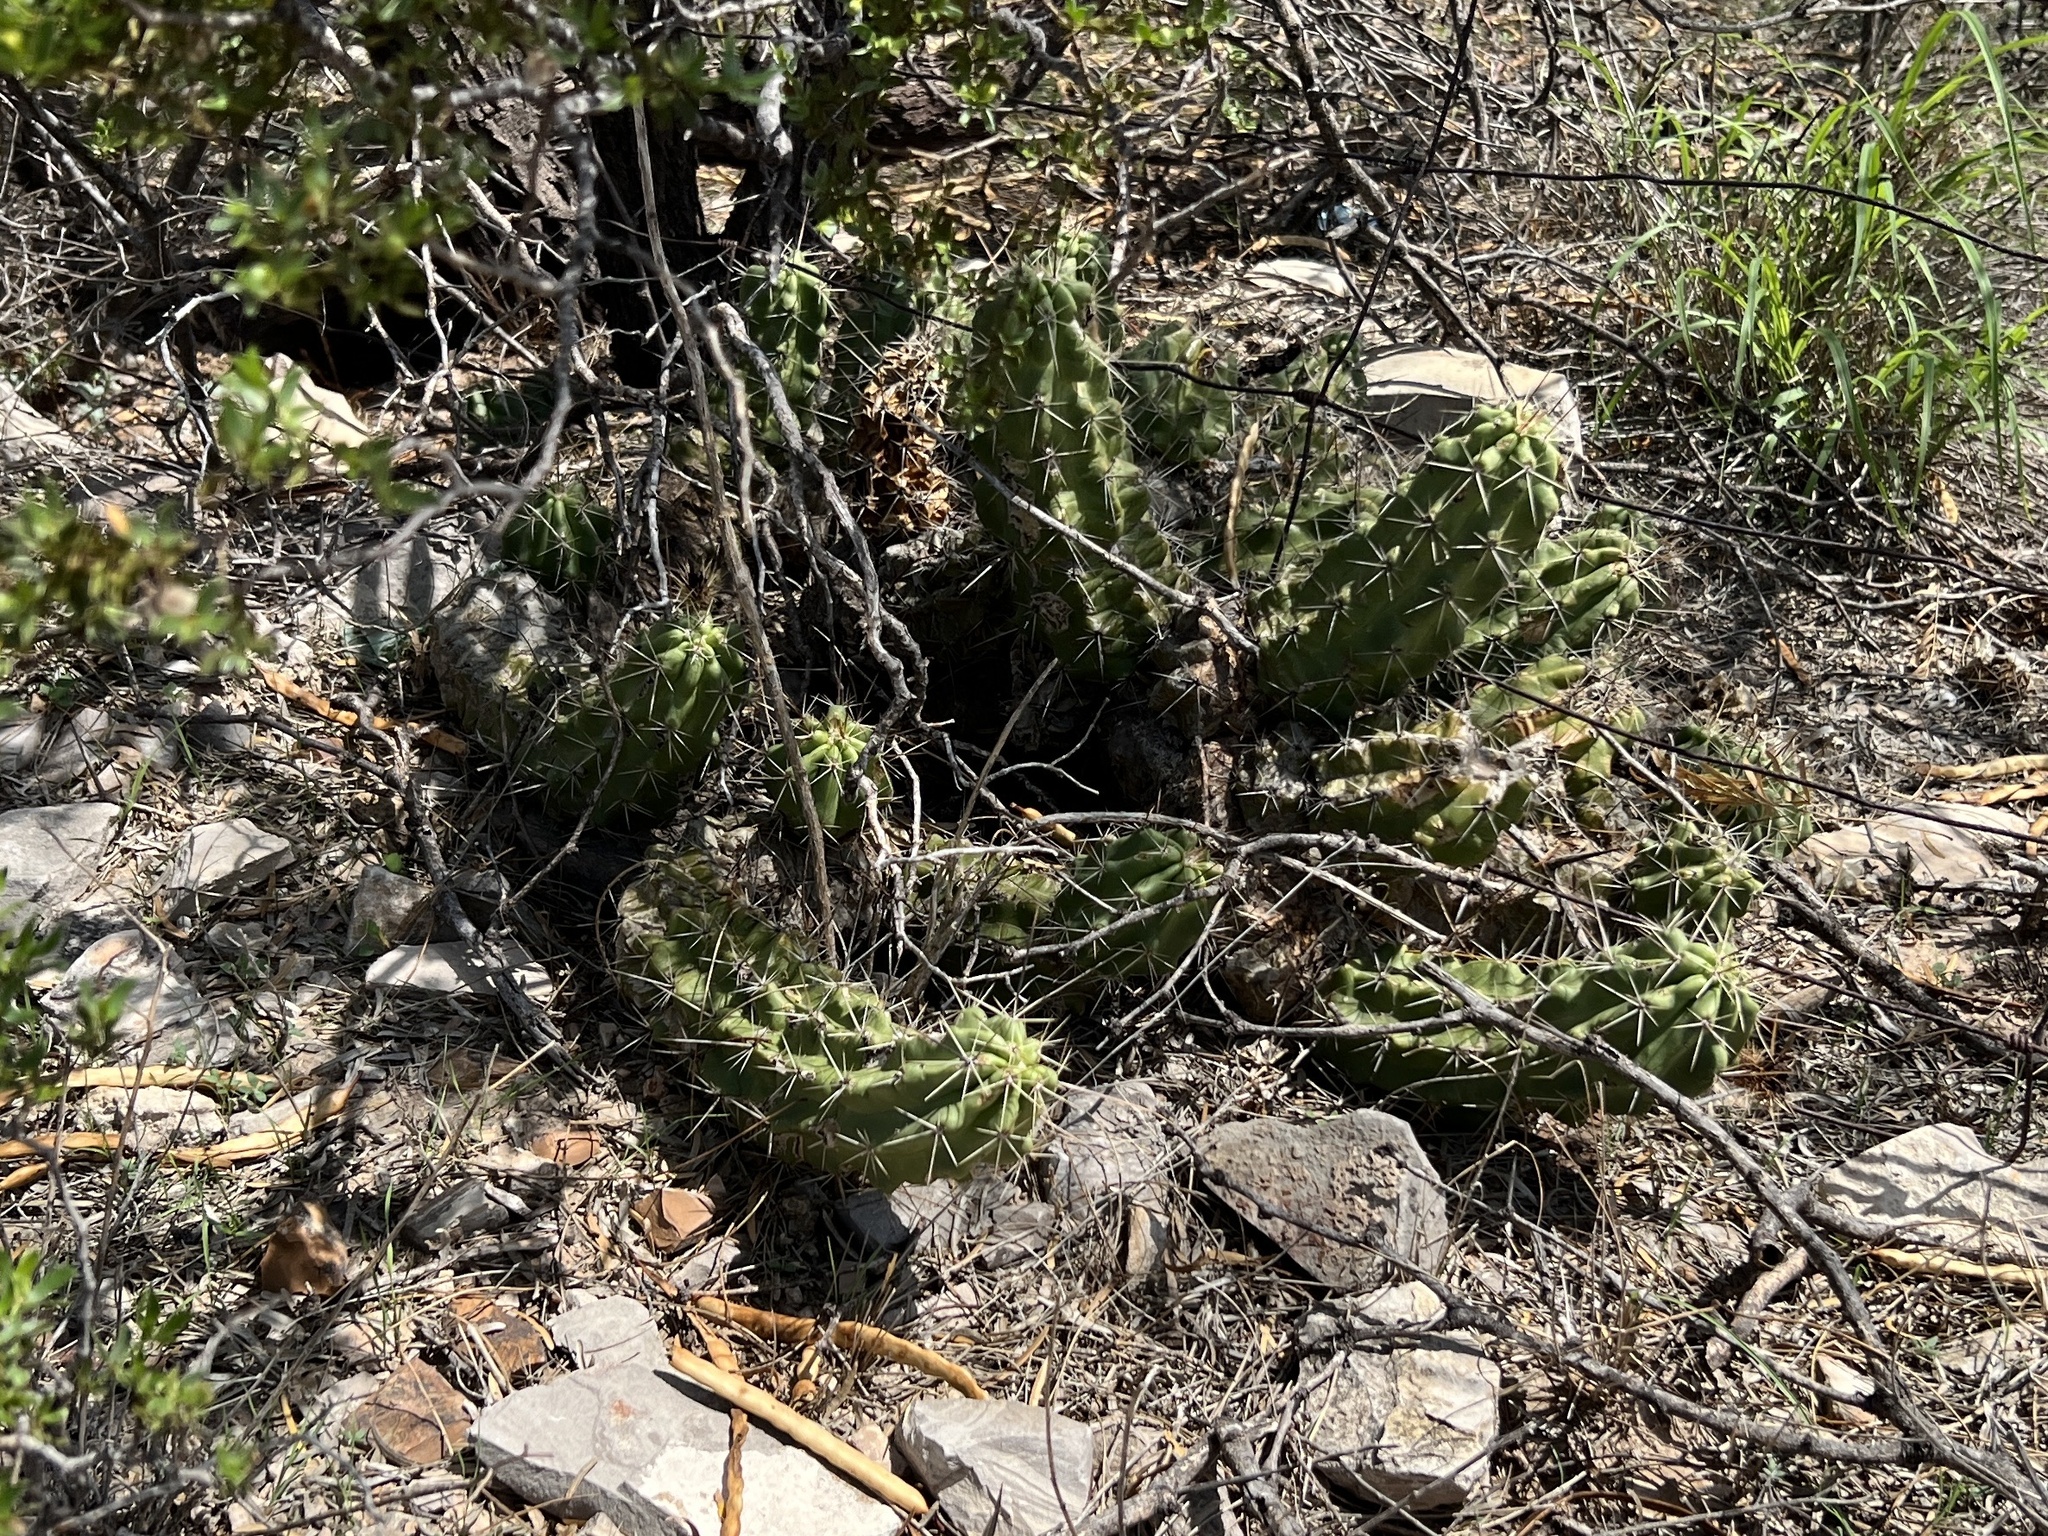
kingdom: Plantae
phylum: Tracheophyta
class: Magnoliopsida
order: Caryophyllales
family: Cactaceae
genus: Echinocereus
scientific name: Echinocereus enneacanthus
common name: Pitaya
